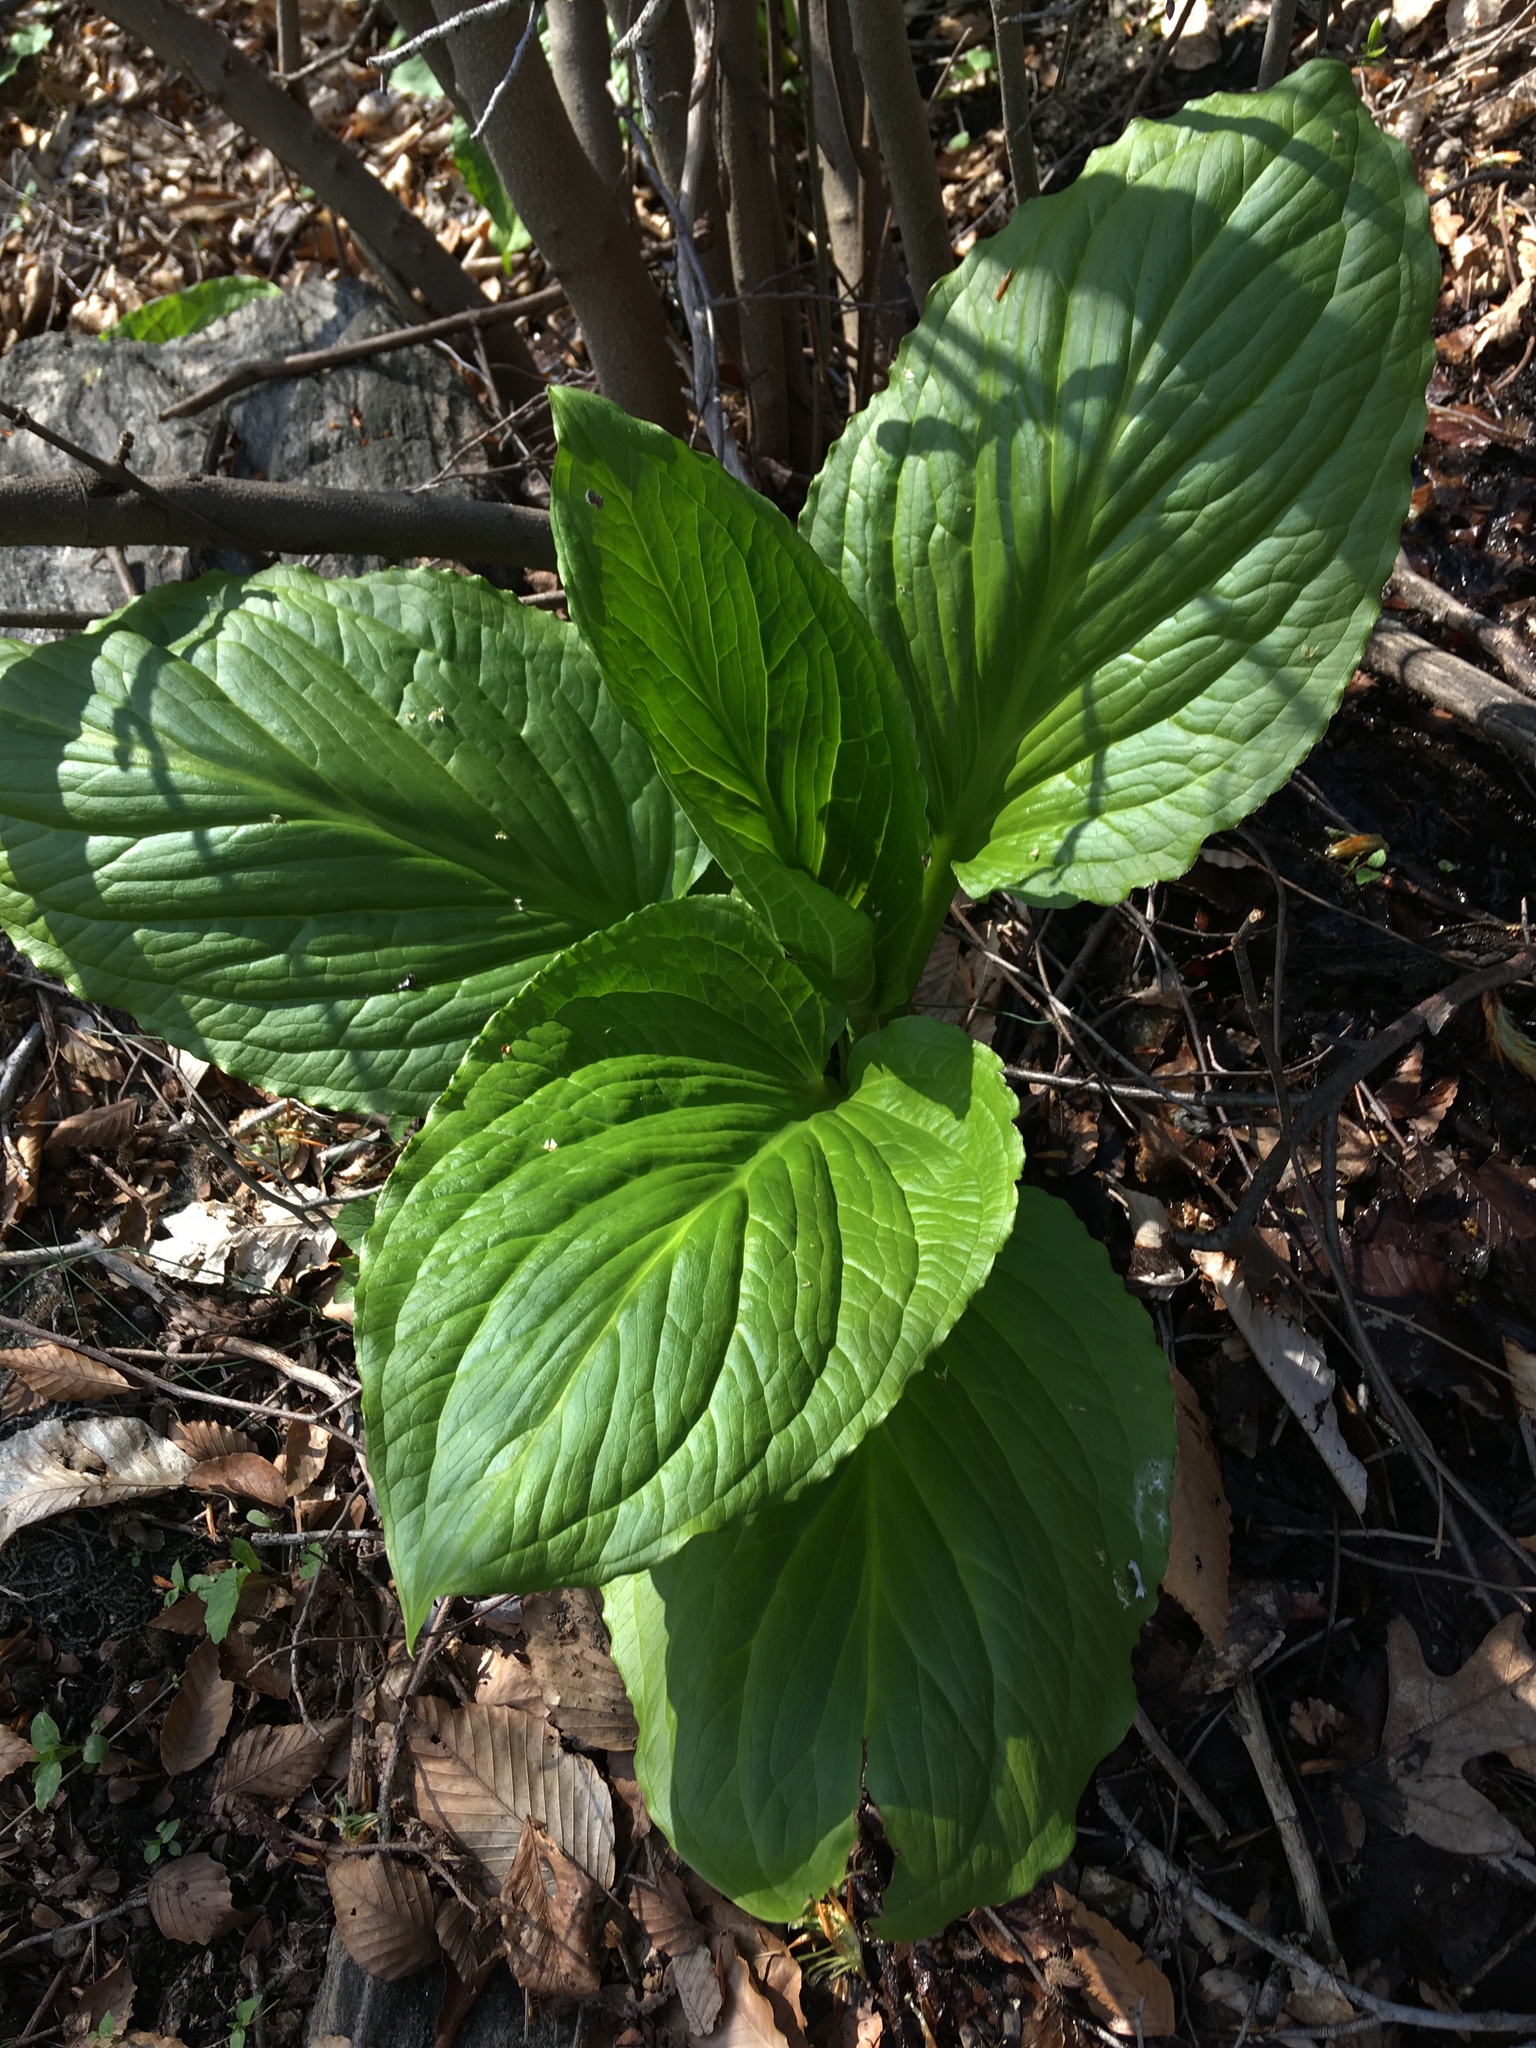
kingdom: Plantae
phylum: Tracheophyta
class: Liliopsida
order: Alismatales
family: Araceae
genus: Symplocarpus
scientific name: Symplocarpus foetidus
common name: Eastern skunk cabbage
